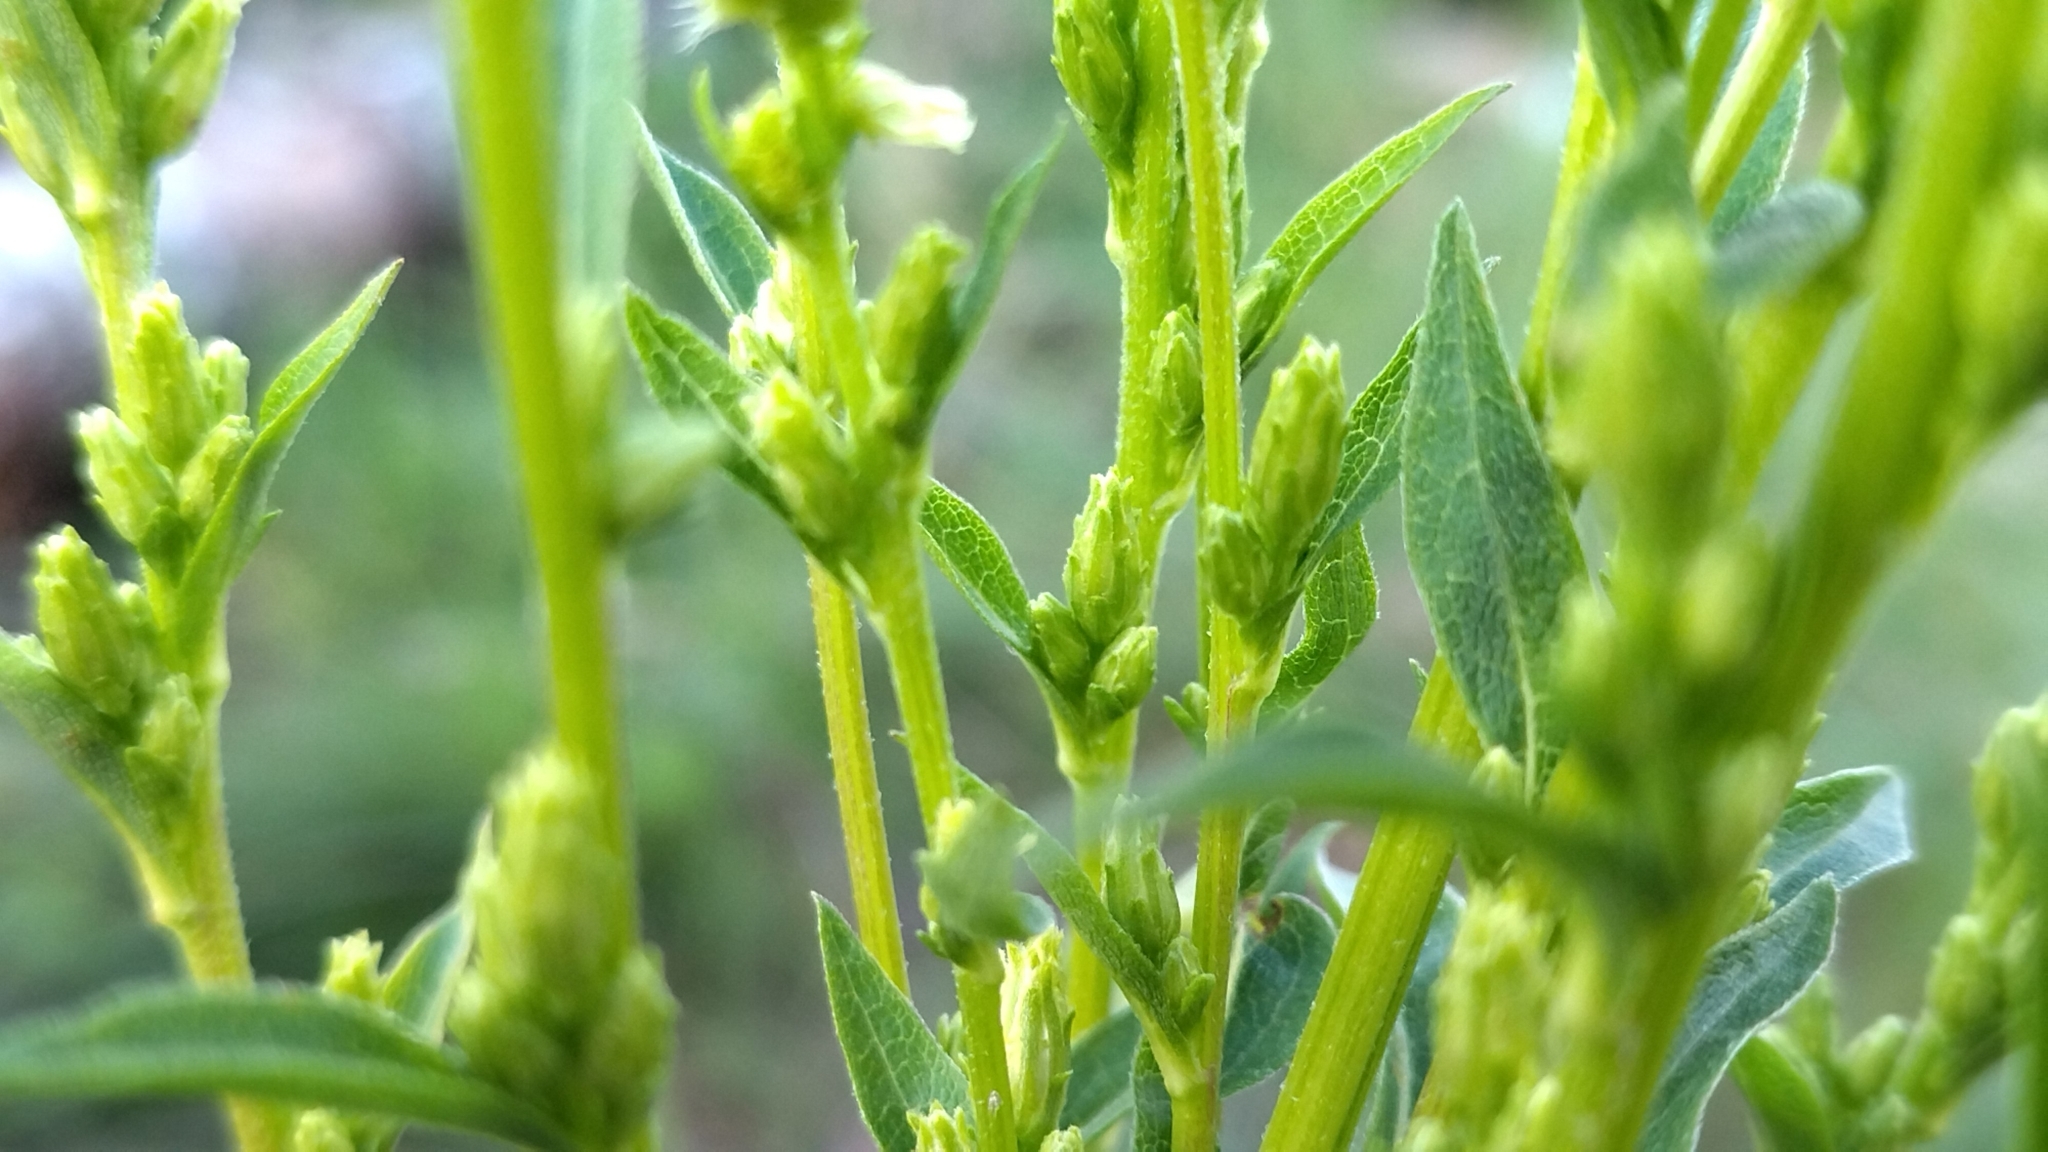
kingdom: Plantae
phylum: Tracheophyta
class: Magnoliopsida
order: Asterales
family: Asteraceae
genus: Solidago
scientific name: Solidago virgaurea
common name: Goldenrod
